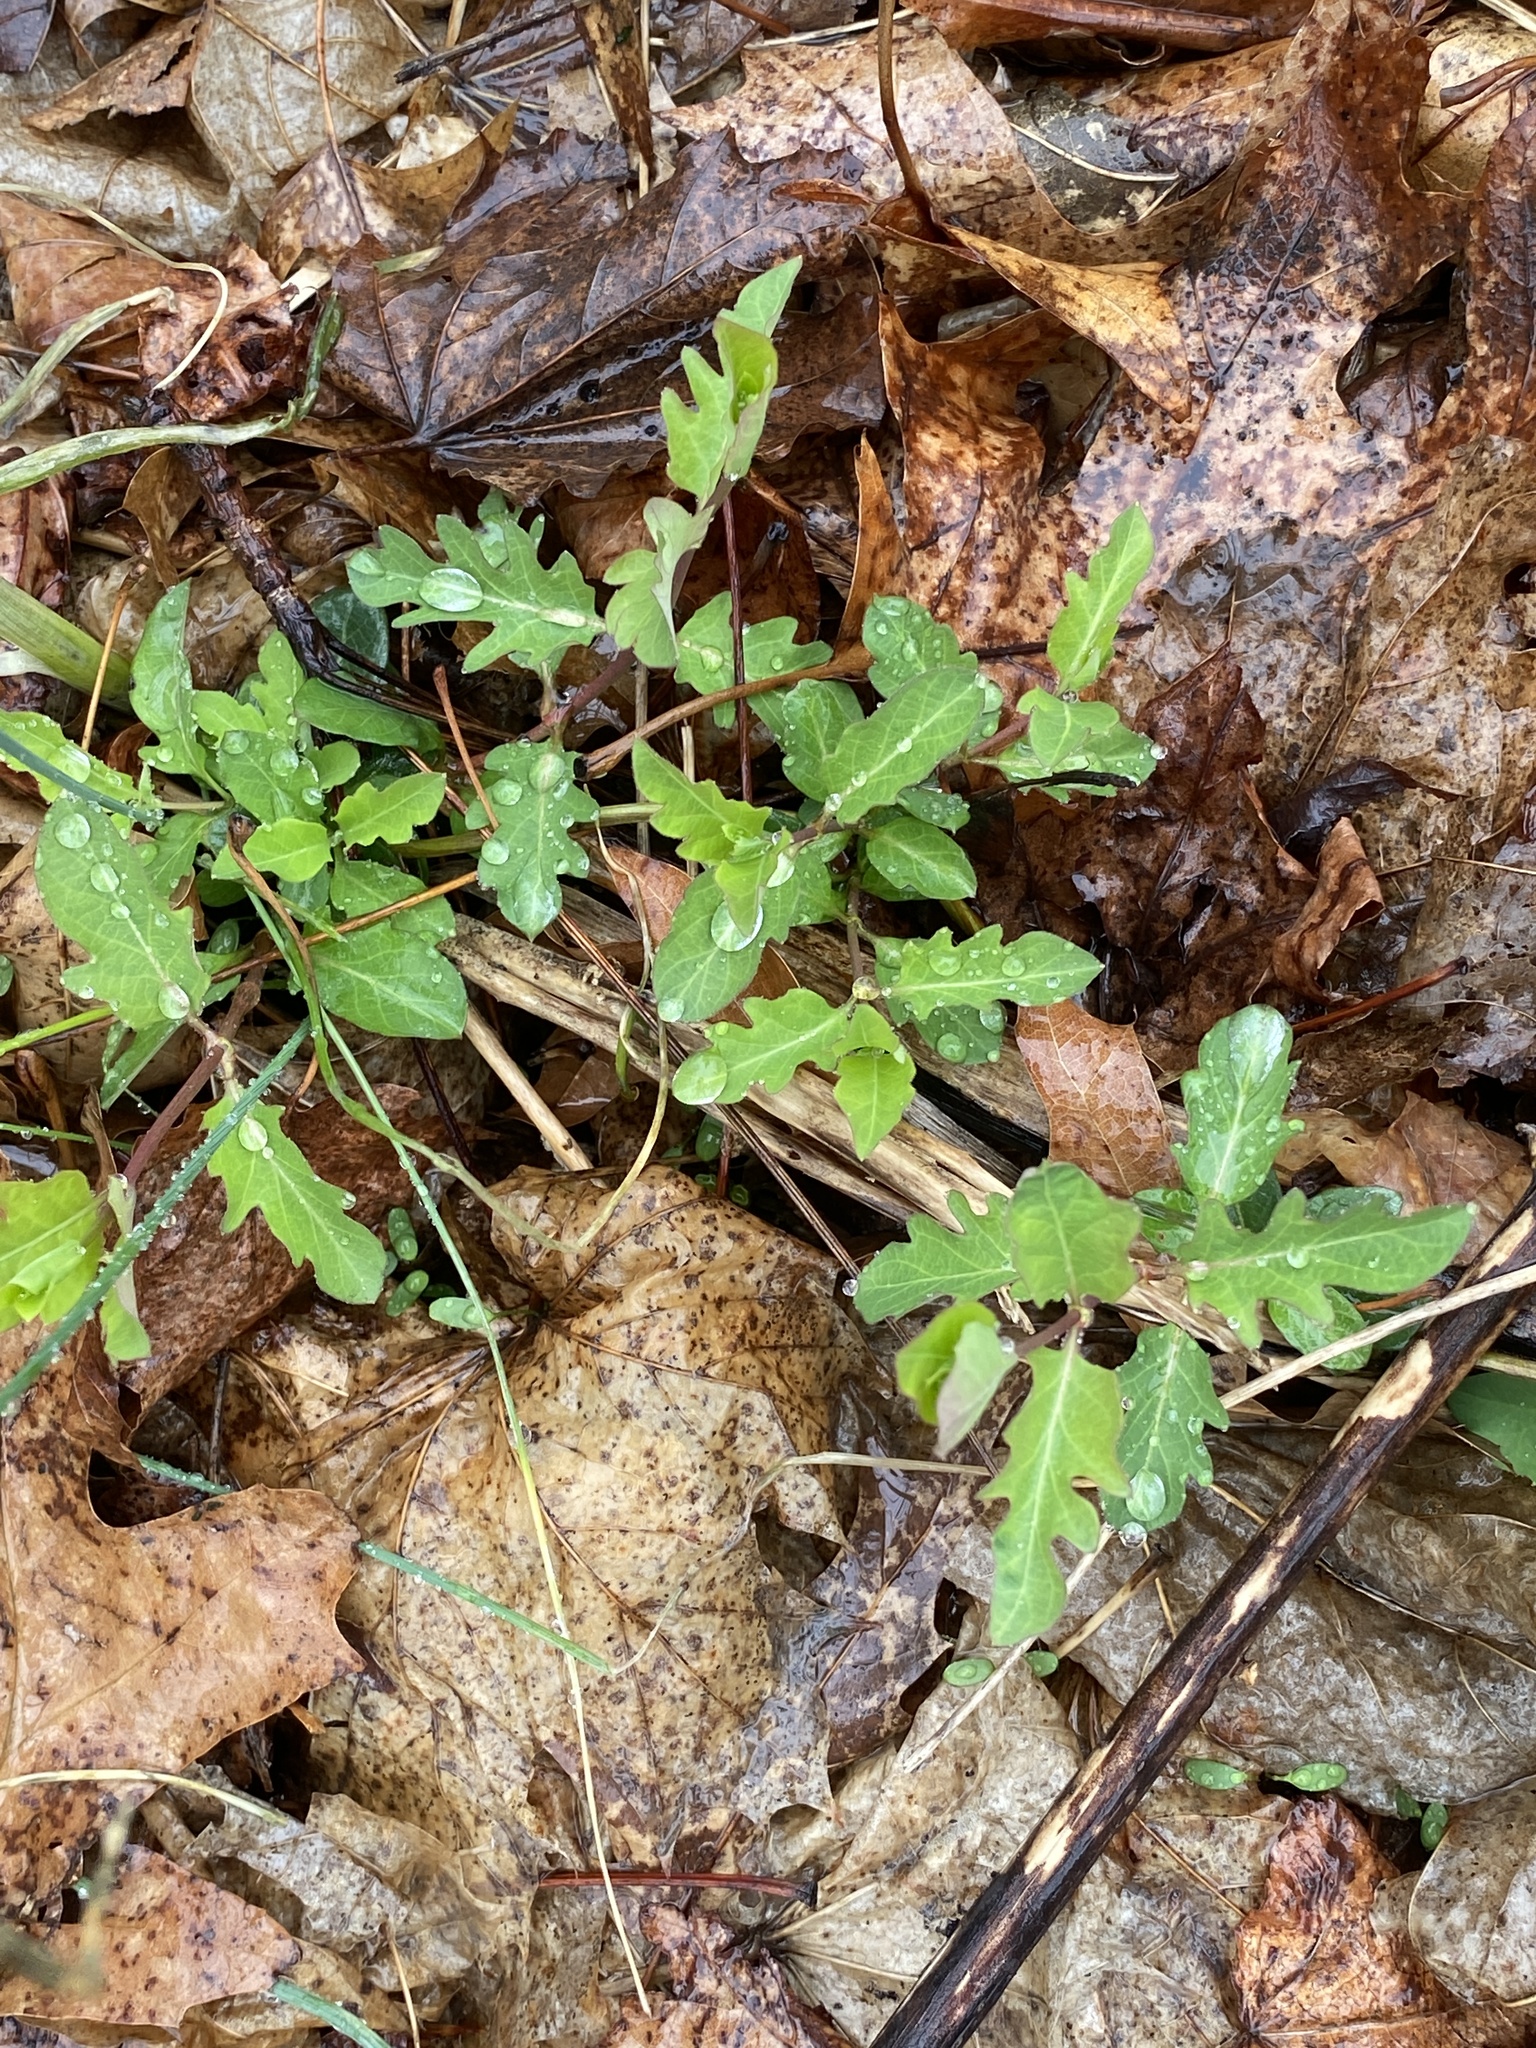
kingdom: Plantae
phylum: Tracheophyta
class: Magnoliopsida
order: Dipsacales
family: Caprifoliaceae
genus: Lonicera
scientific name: Lonicera japonica
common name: Japanese honeysuckle
